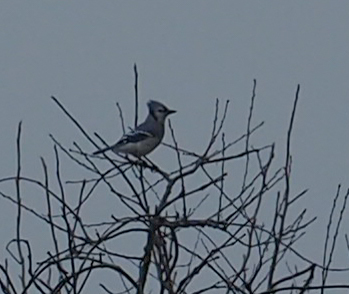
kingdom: Animalia
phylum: Chordata
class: Aves
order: Passeriformes
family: Corvidae
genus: Cyanocitta
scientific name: Cyanocitta cristata
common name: Blue jay
